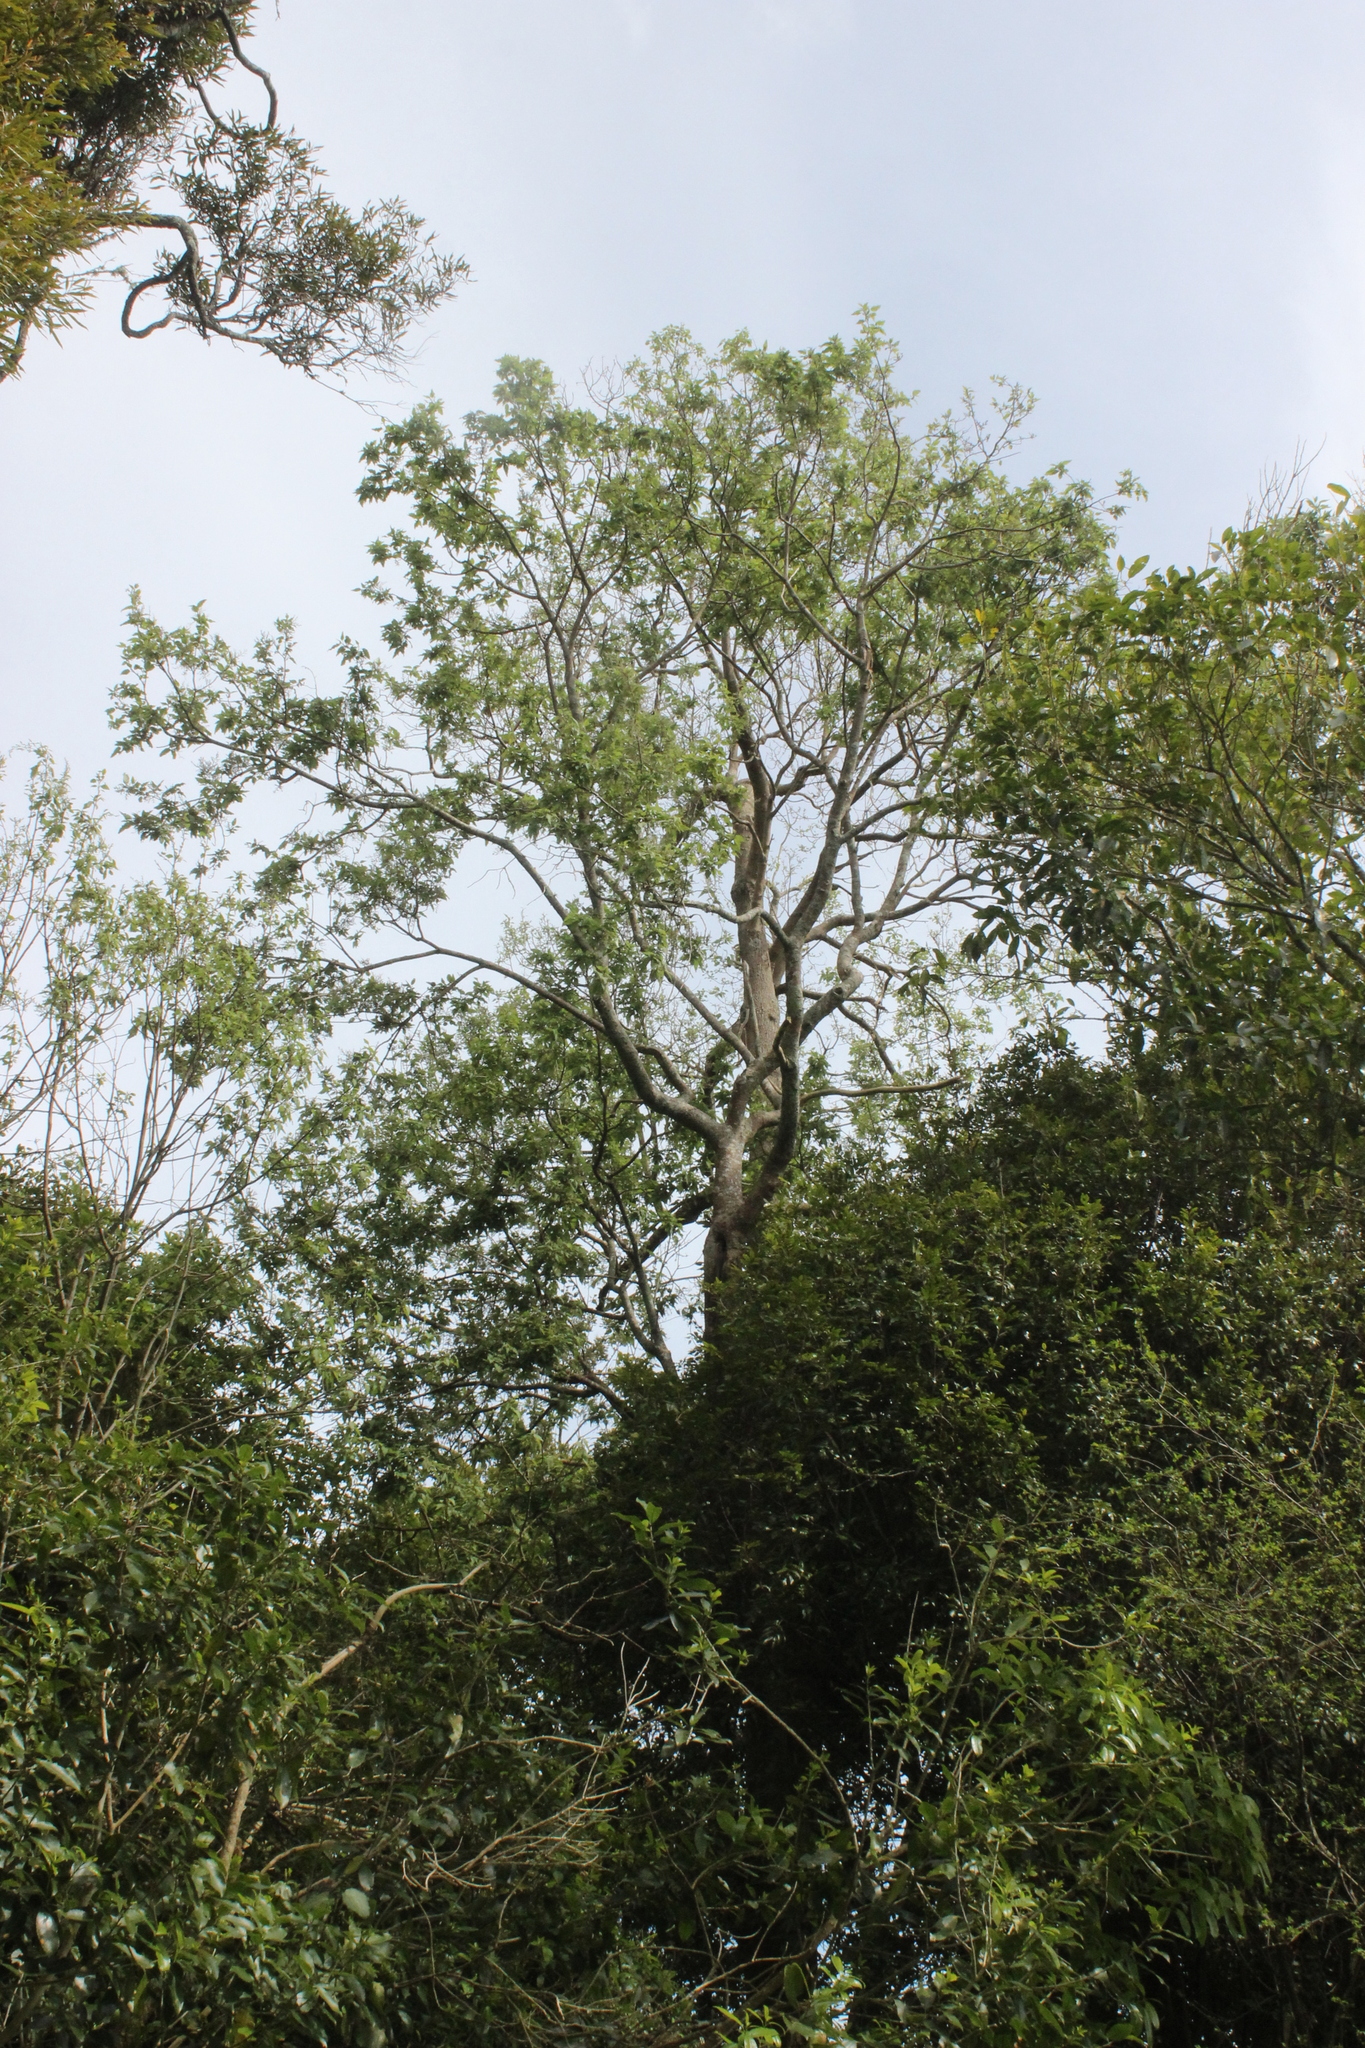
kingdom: Plantae
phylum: Tracheophyta
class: Magnoliopsida
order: Malvales
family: Malvaceae
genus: Plagianthus
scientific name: Plagianthus regius
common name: Manatu
